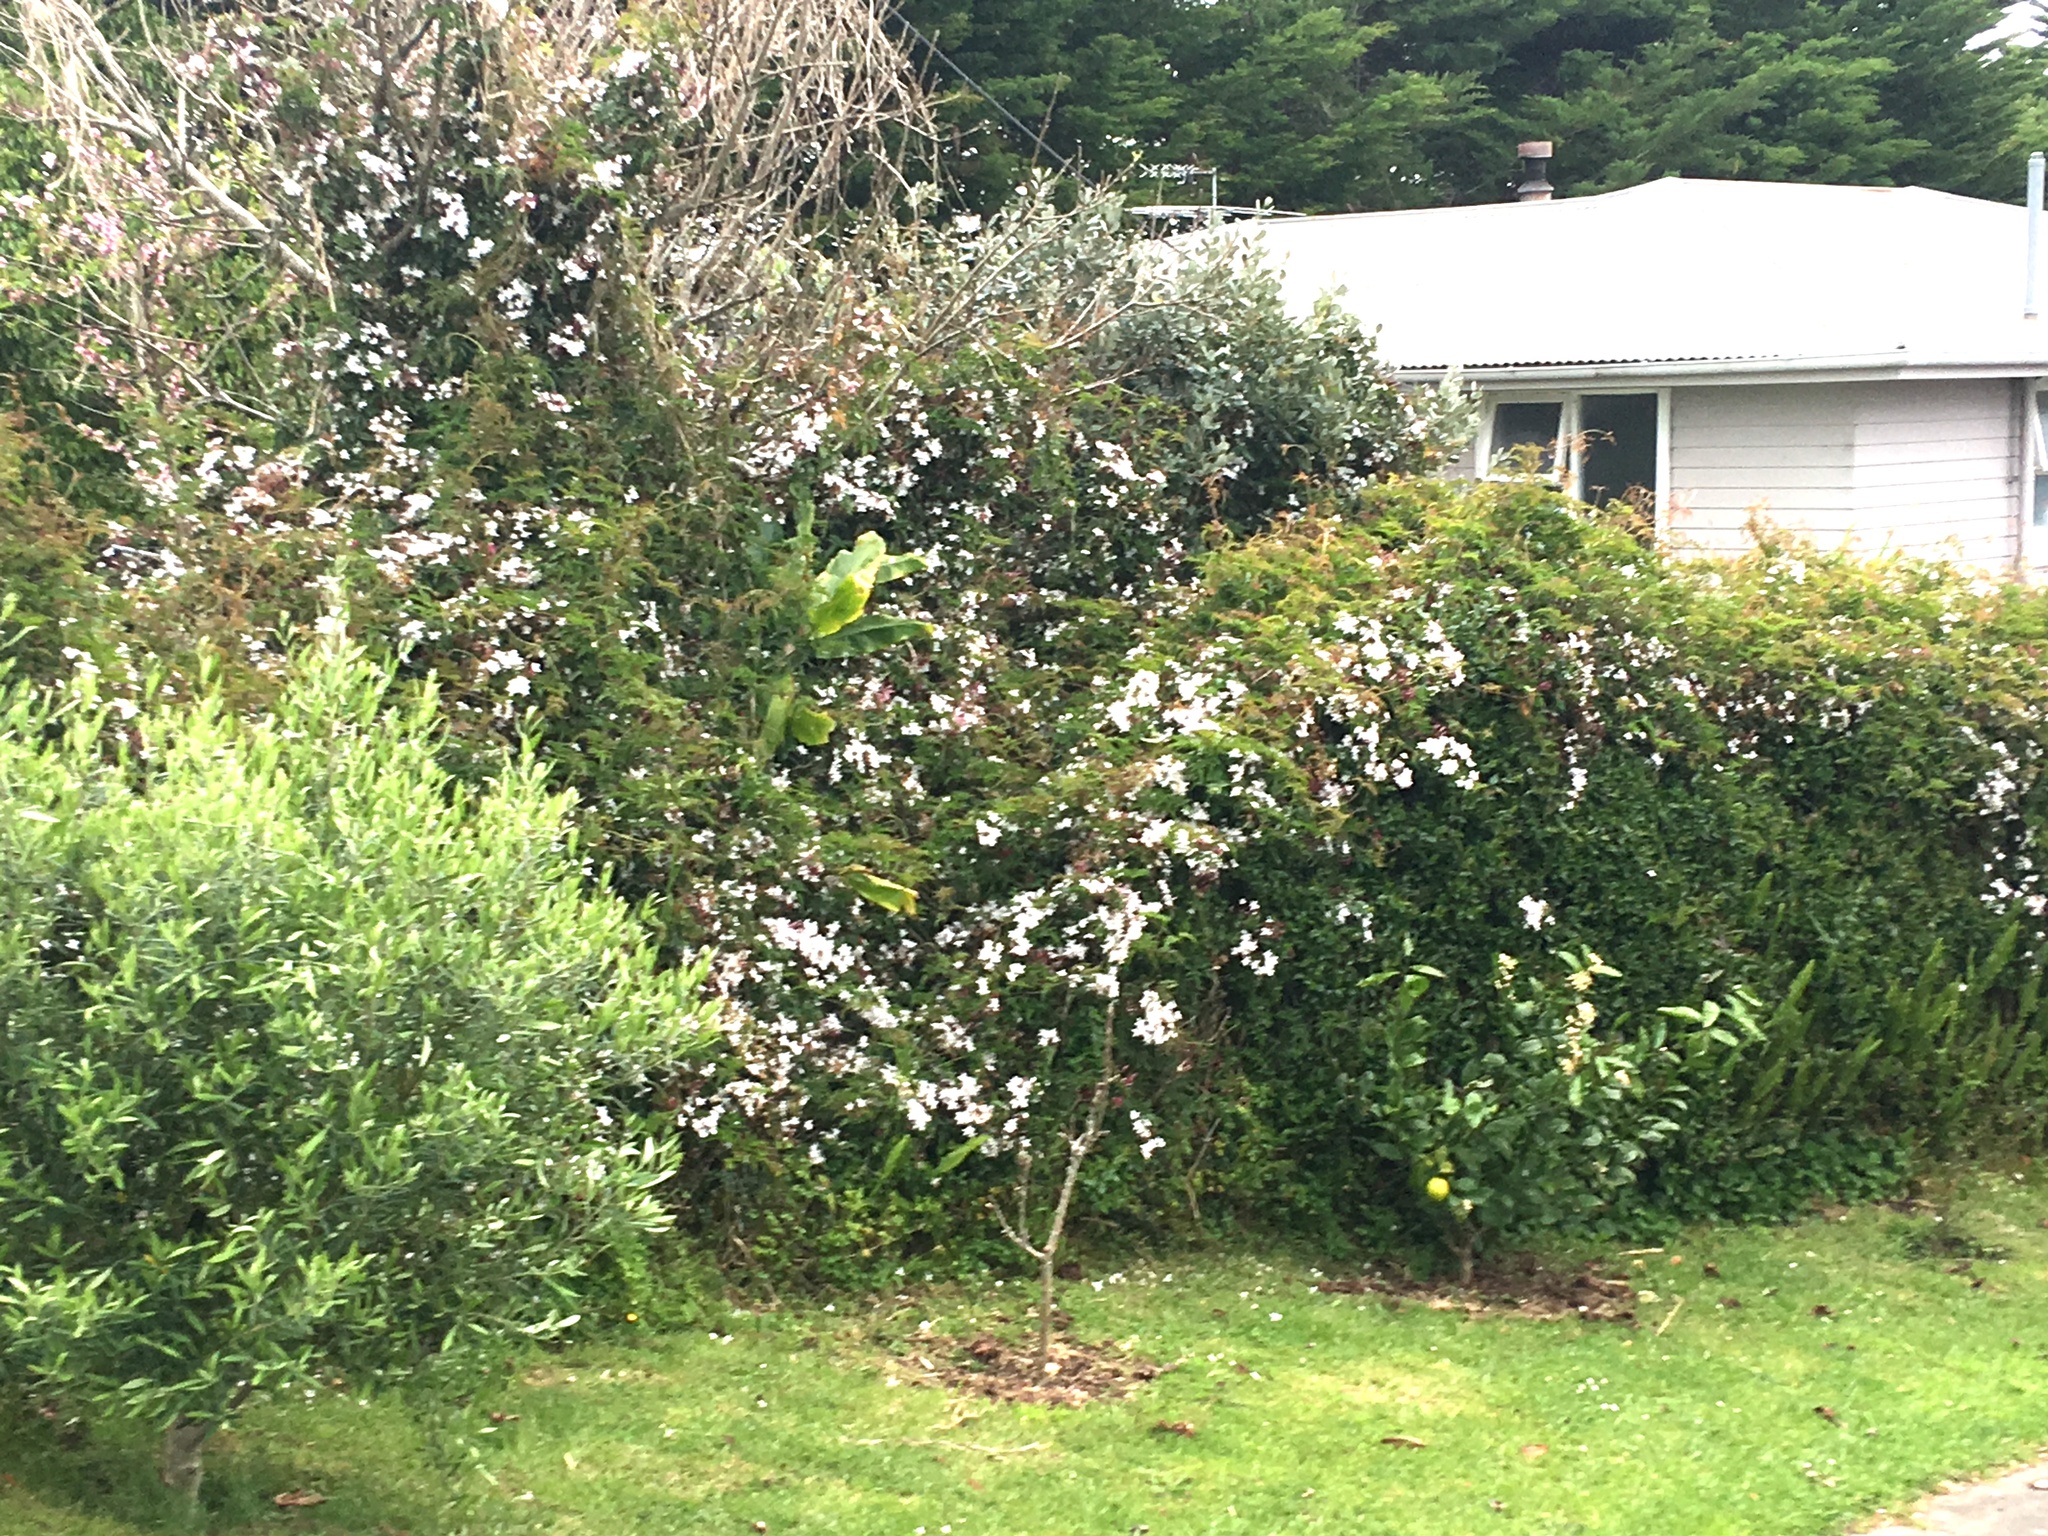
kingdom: Plantae
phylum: Tracheophyta
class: Magnoliopsida
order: Lamiales
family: Oleaceae
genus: Jasminum
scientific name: Jasminum polyanthum
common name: Pink jasmine
